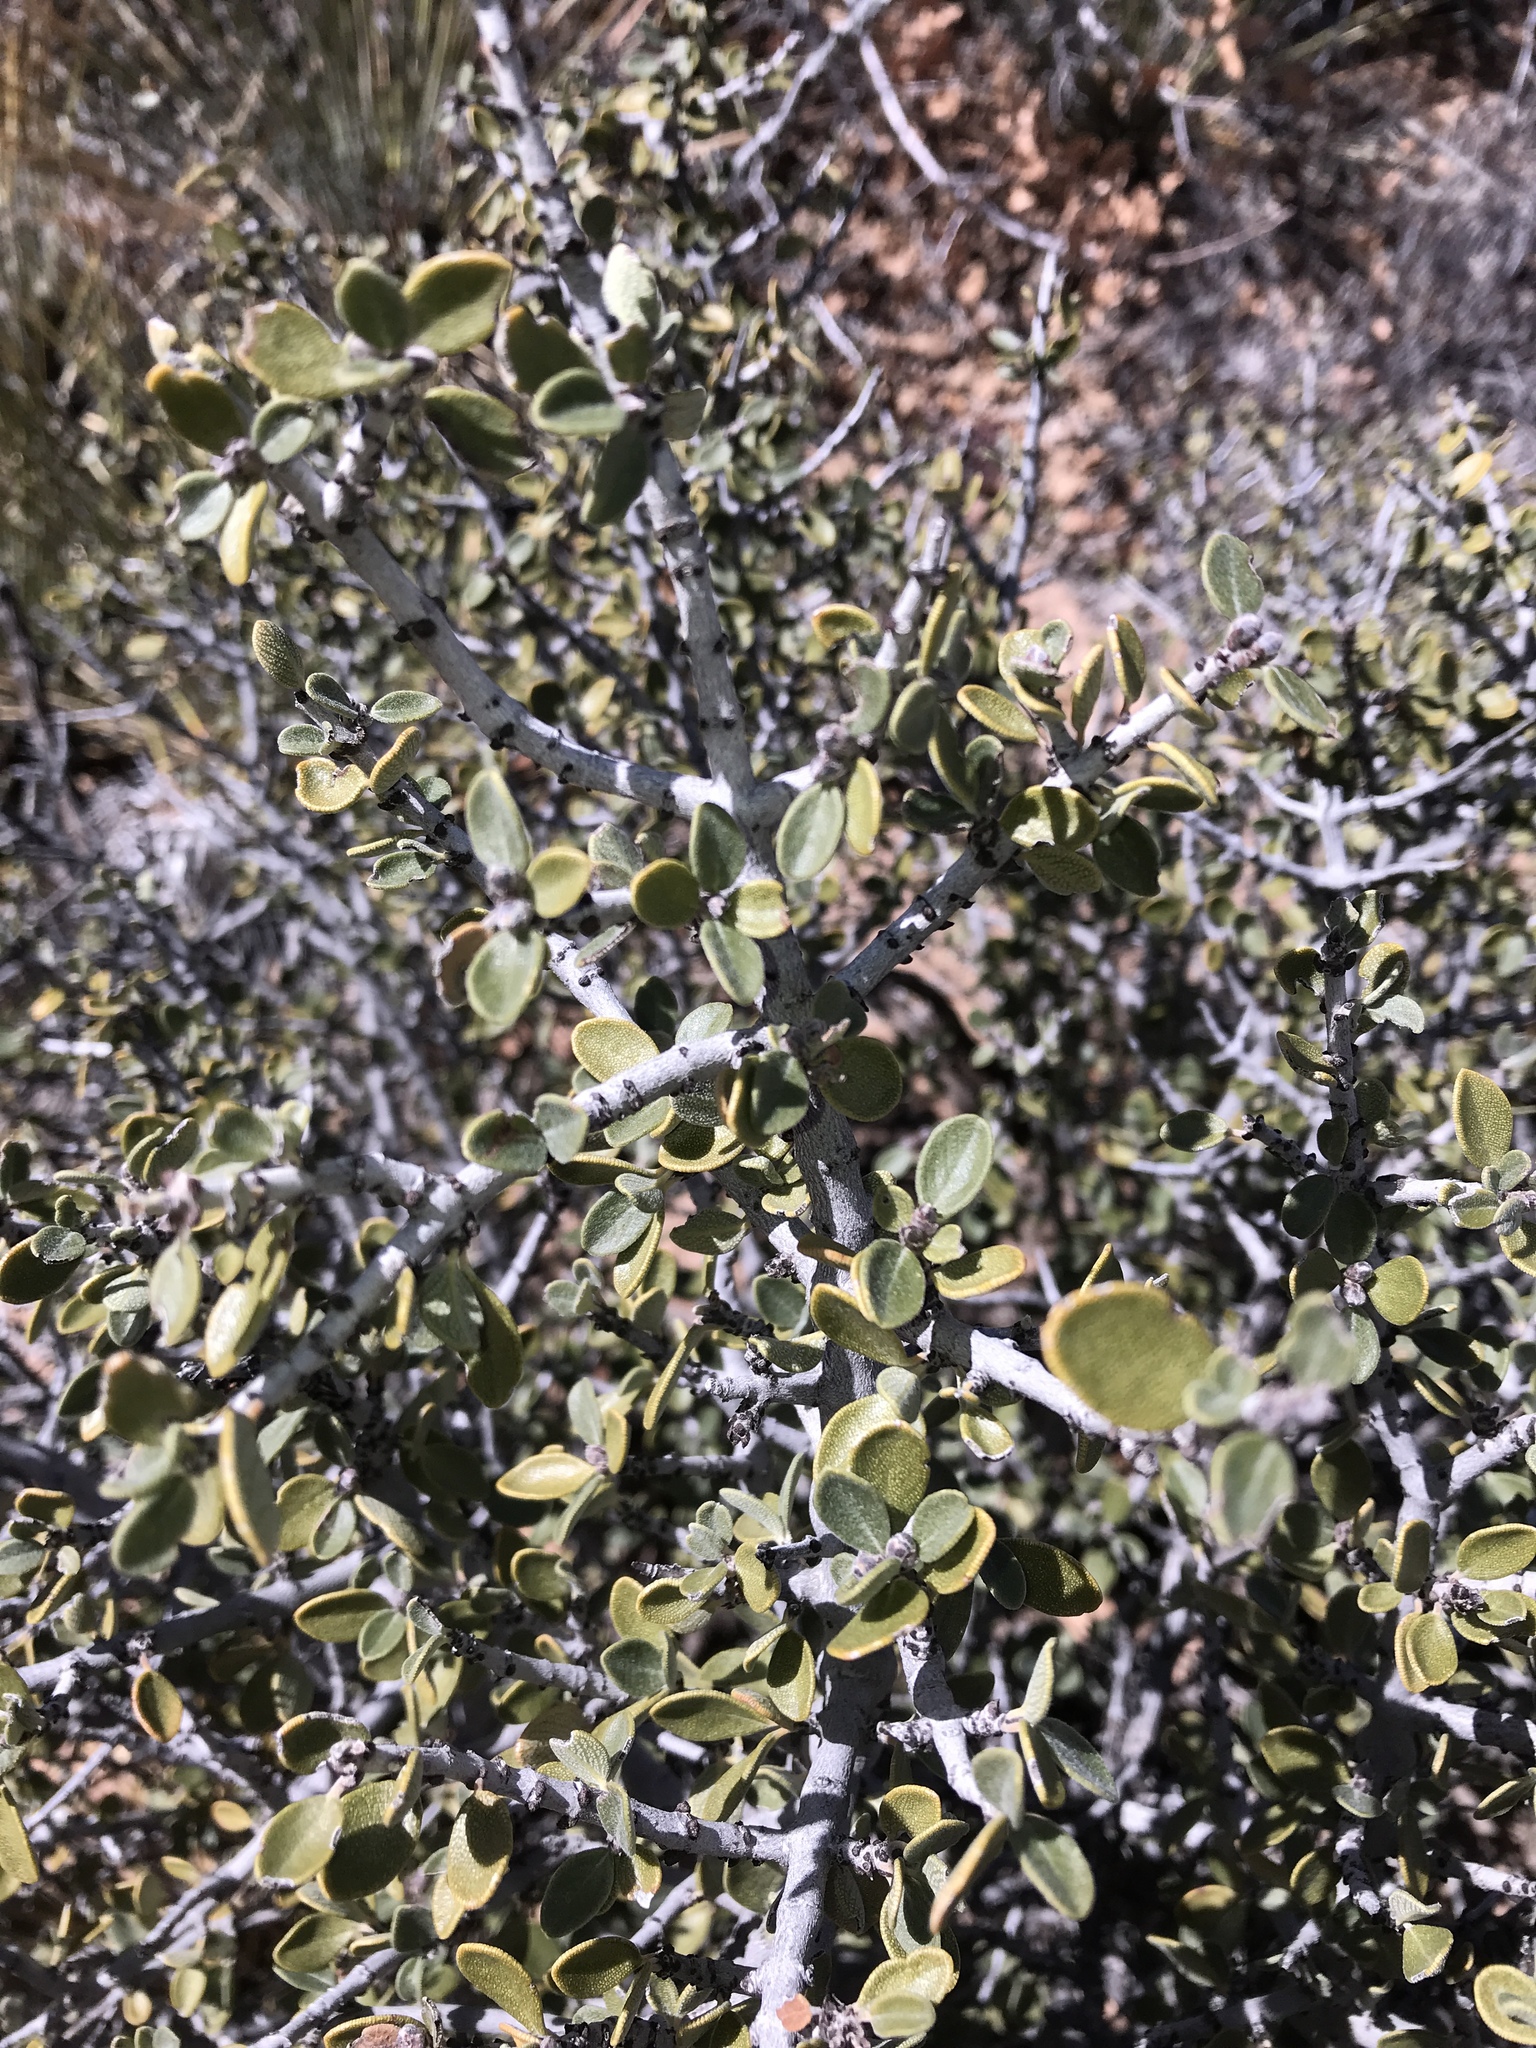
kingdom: Plantae
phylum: Tracheophyta
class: Magnoliopsida
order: Rosales
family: Rhamnaceae
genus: Ceanothus
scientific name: Ceanothus pauciflorus
